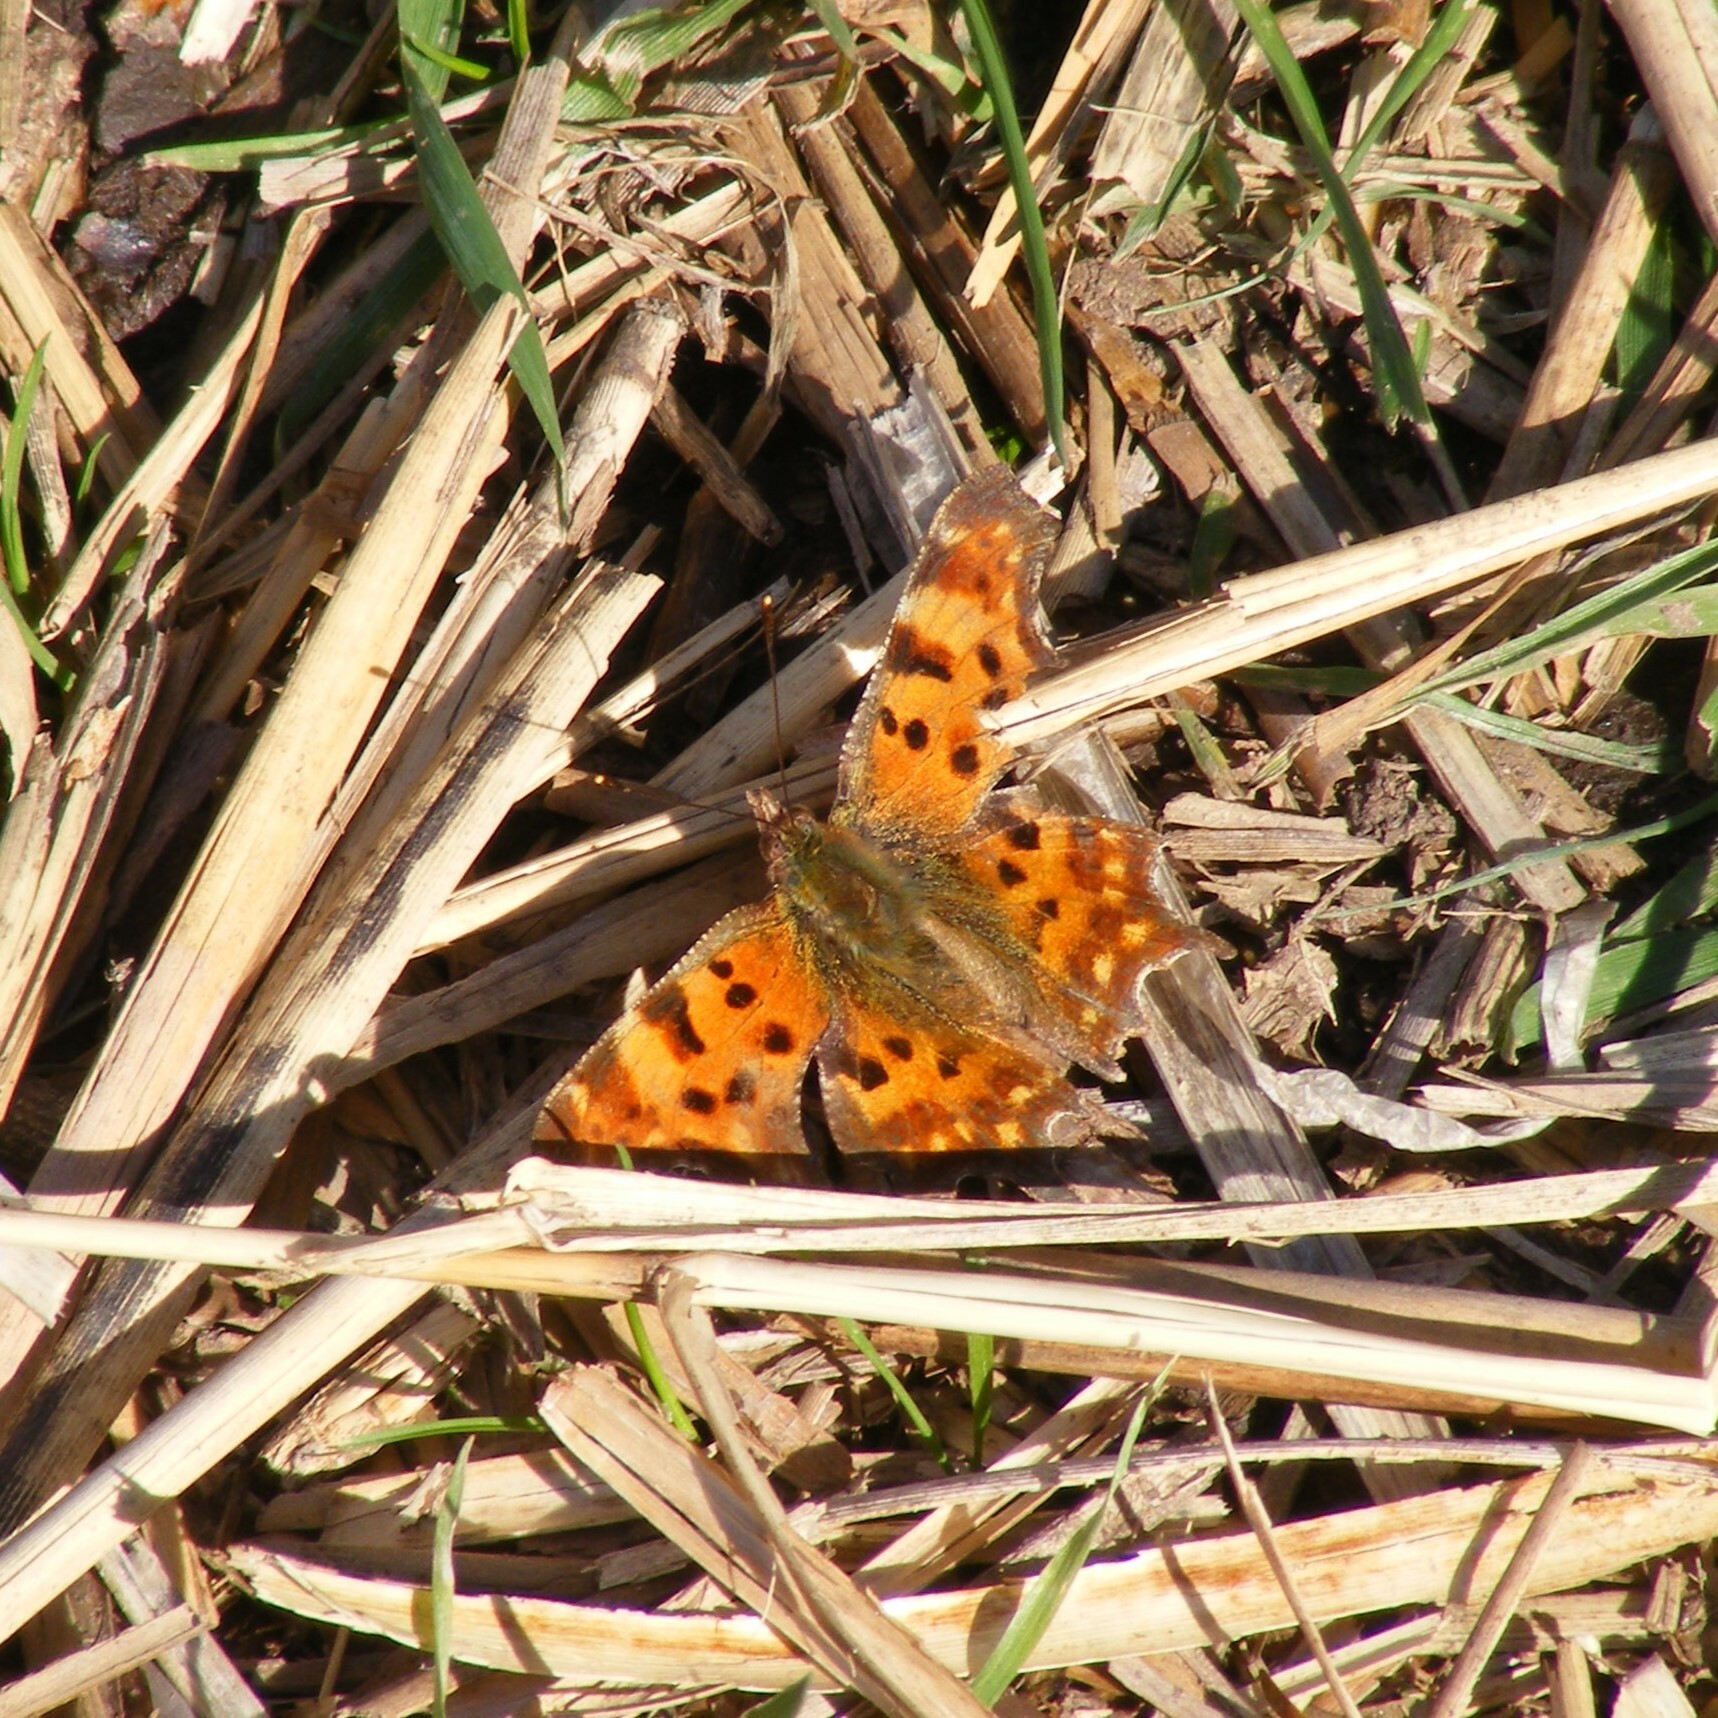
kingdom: Animalia
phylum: Arthropoda
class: Insecta
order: Lepidoptera
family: Nymphalidae
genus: Polygonia
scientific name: Polygonia c-album
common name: Comma
